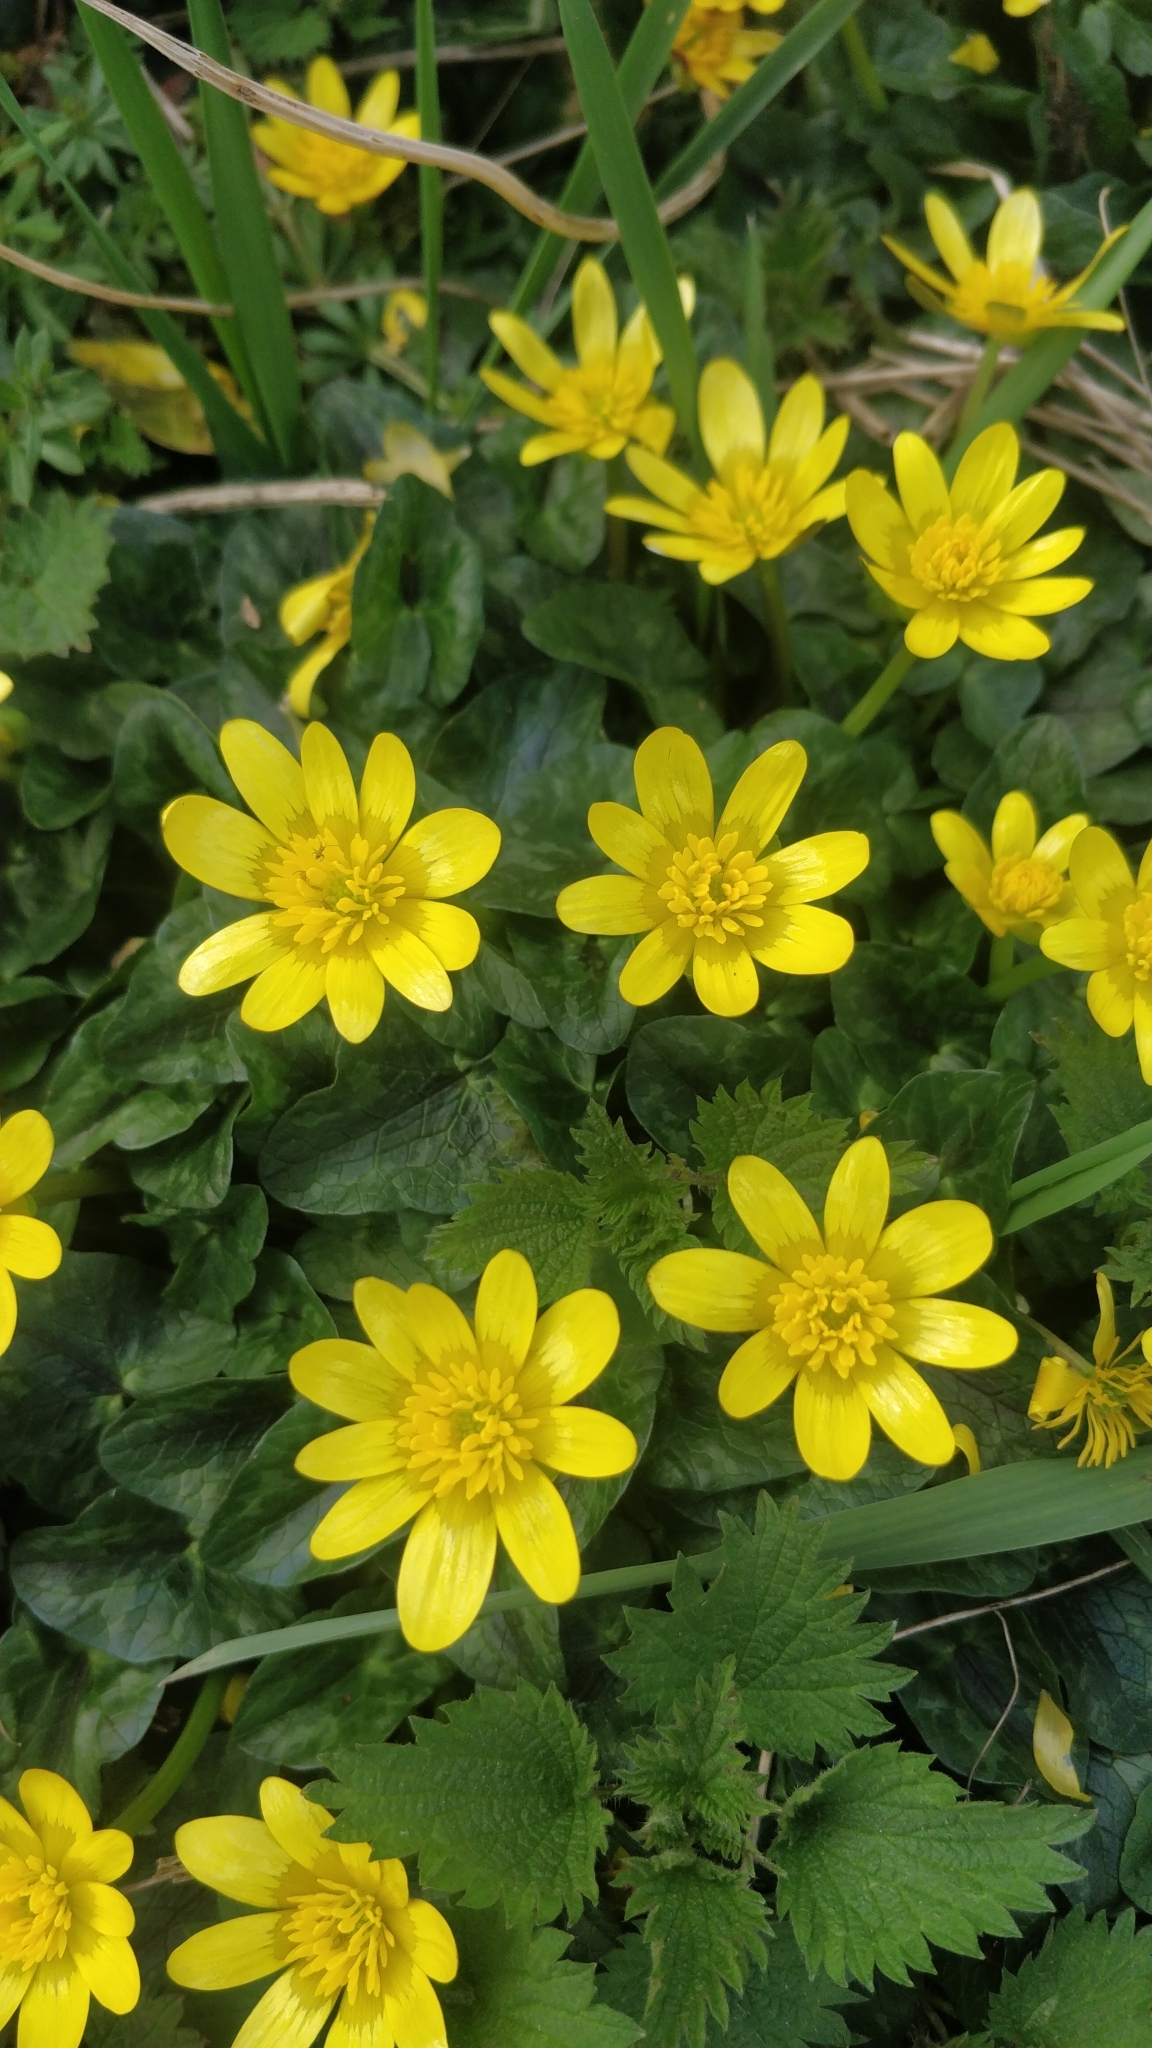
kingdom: Plantae
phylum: Tracheophyta
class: Magnoliopsida
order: Ranunculales
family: Ranunculaceae
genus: Ficaria
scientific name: Ficaria verna
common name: Lesser celandine
